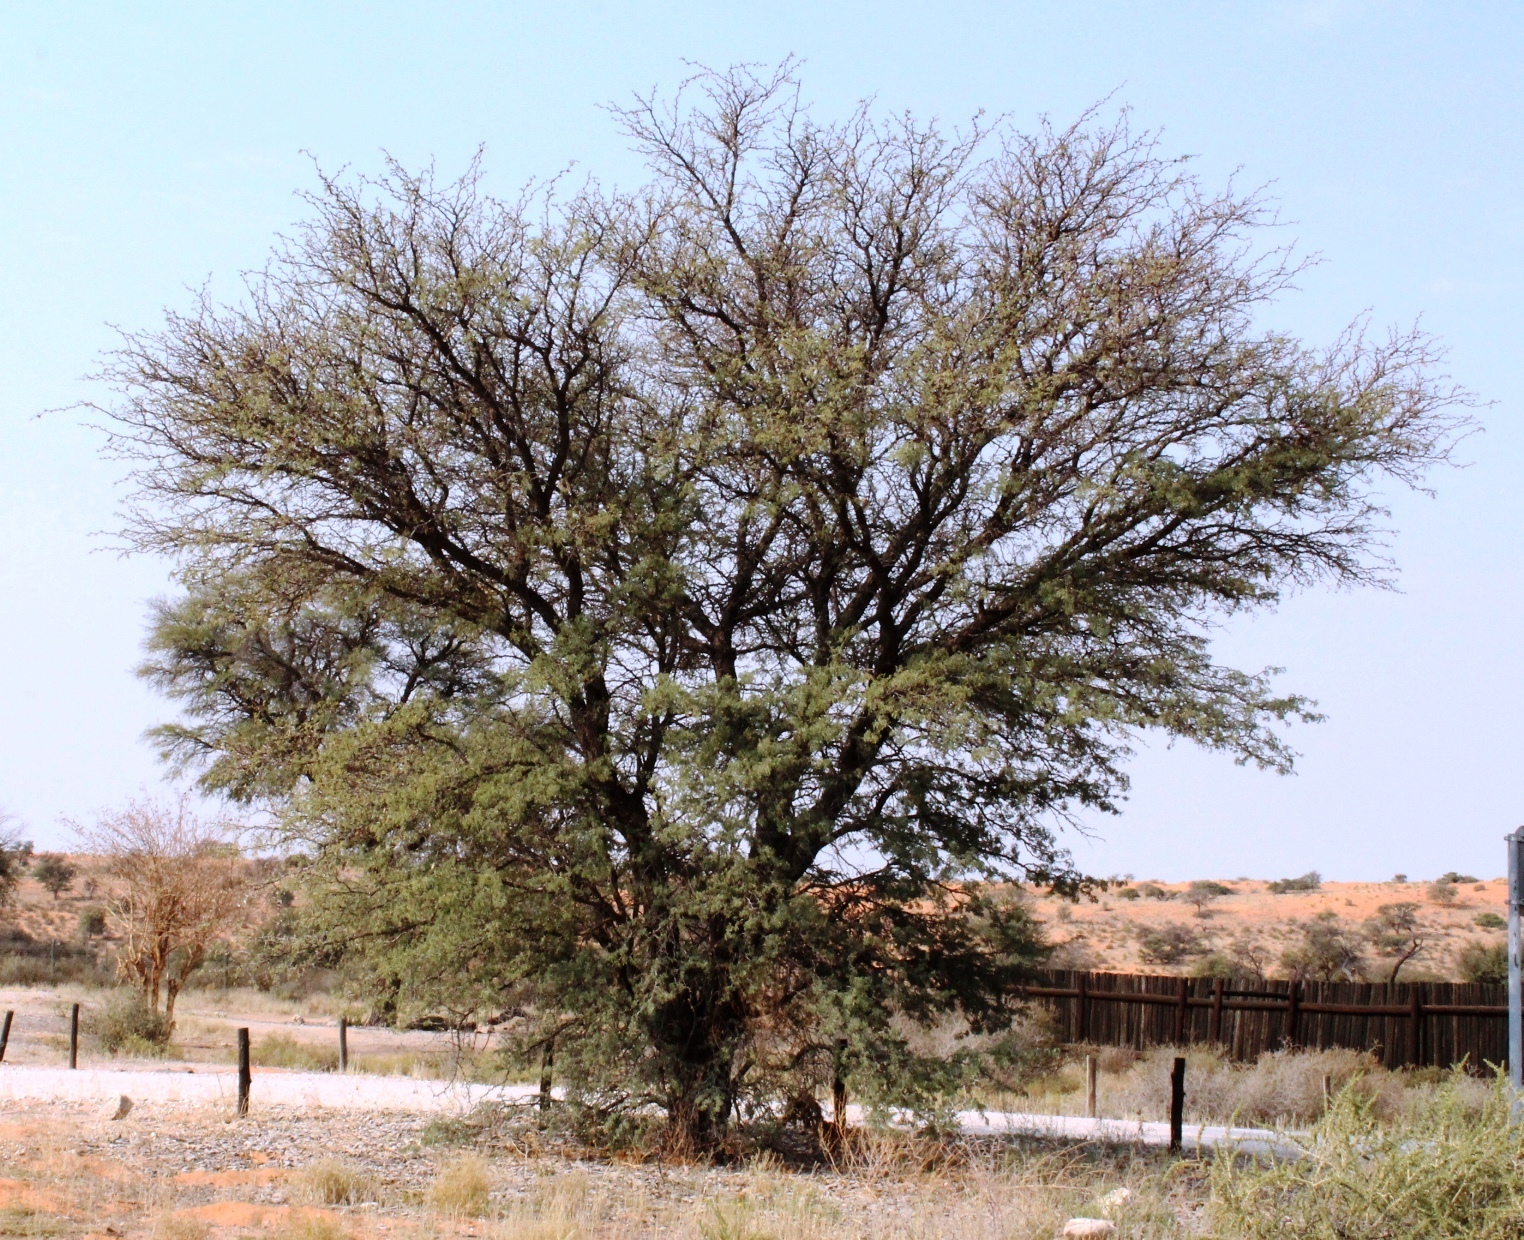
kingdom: Plantae
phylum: Tracheophyta
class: Magnoliopsida
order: Fabales
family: Fabaceae
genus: Vachellia
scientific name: Vachellia erioloba
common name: Camel thorn
